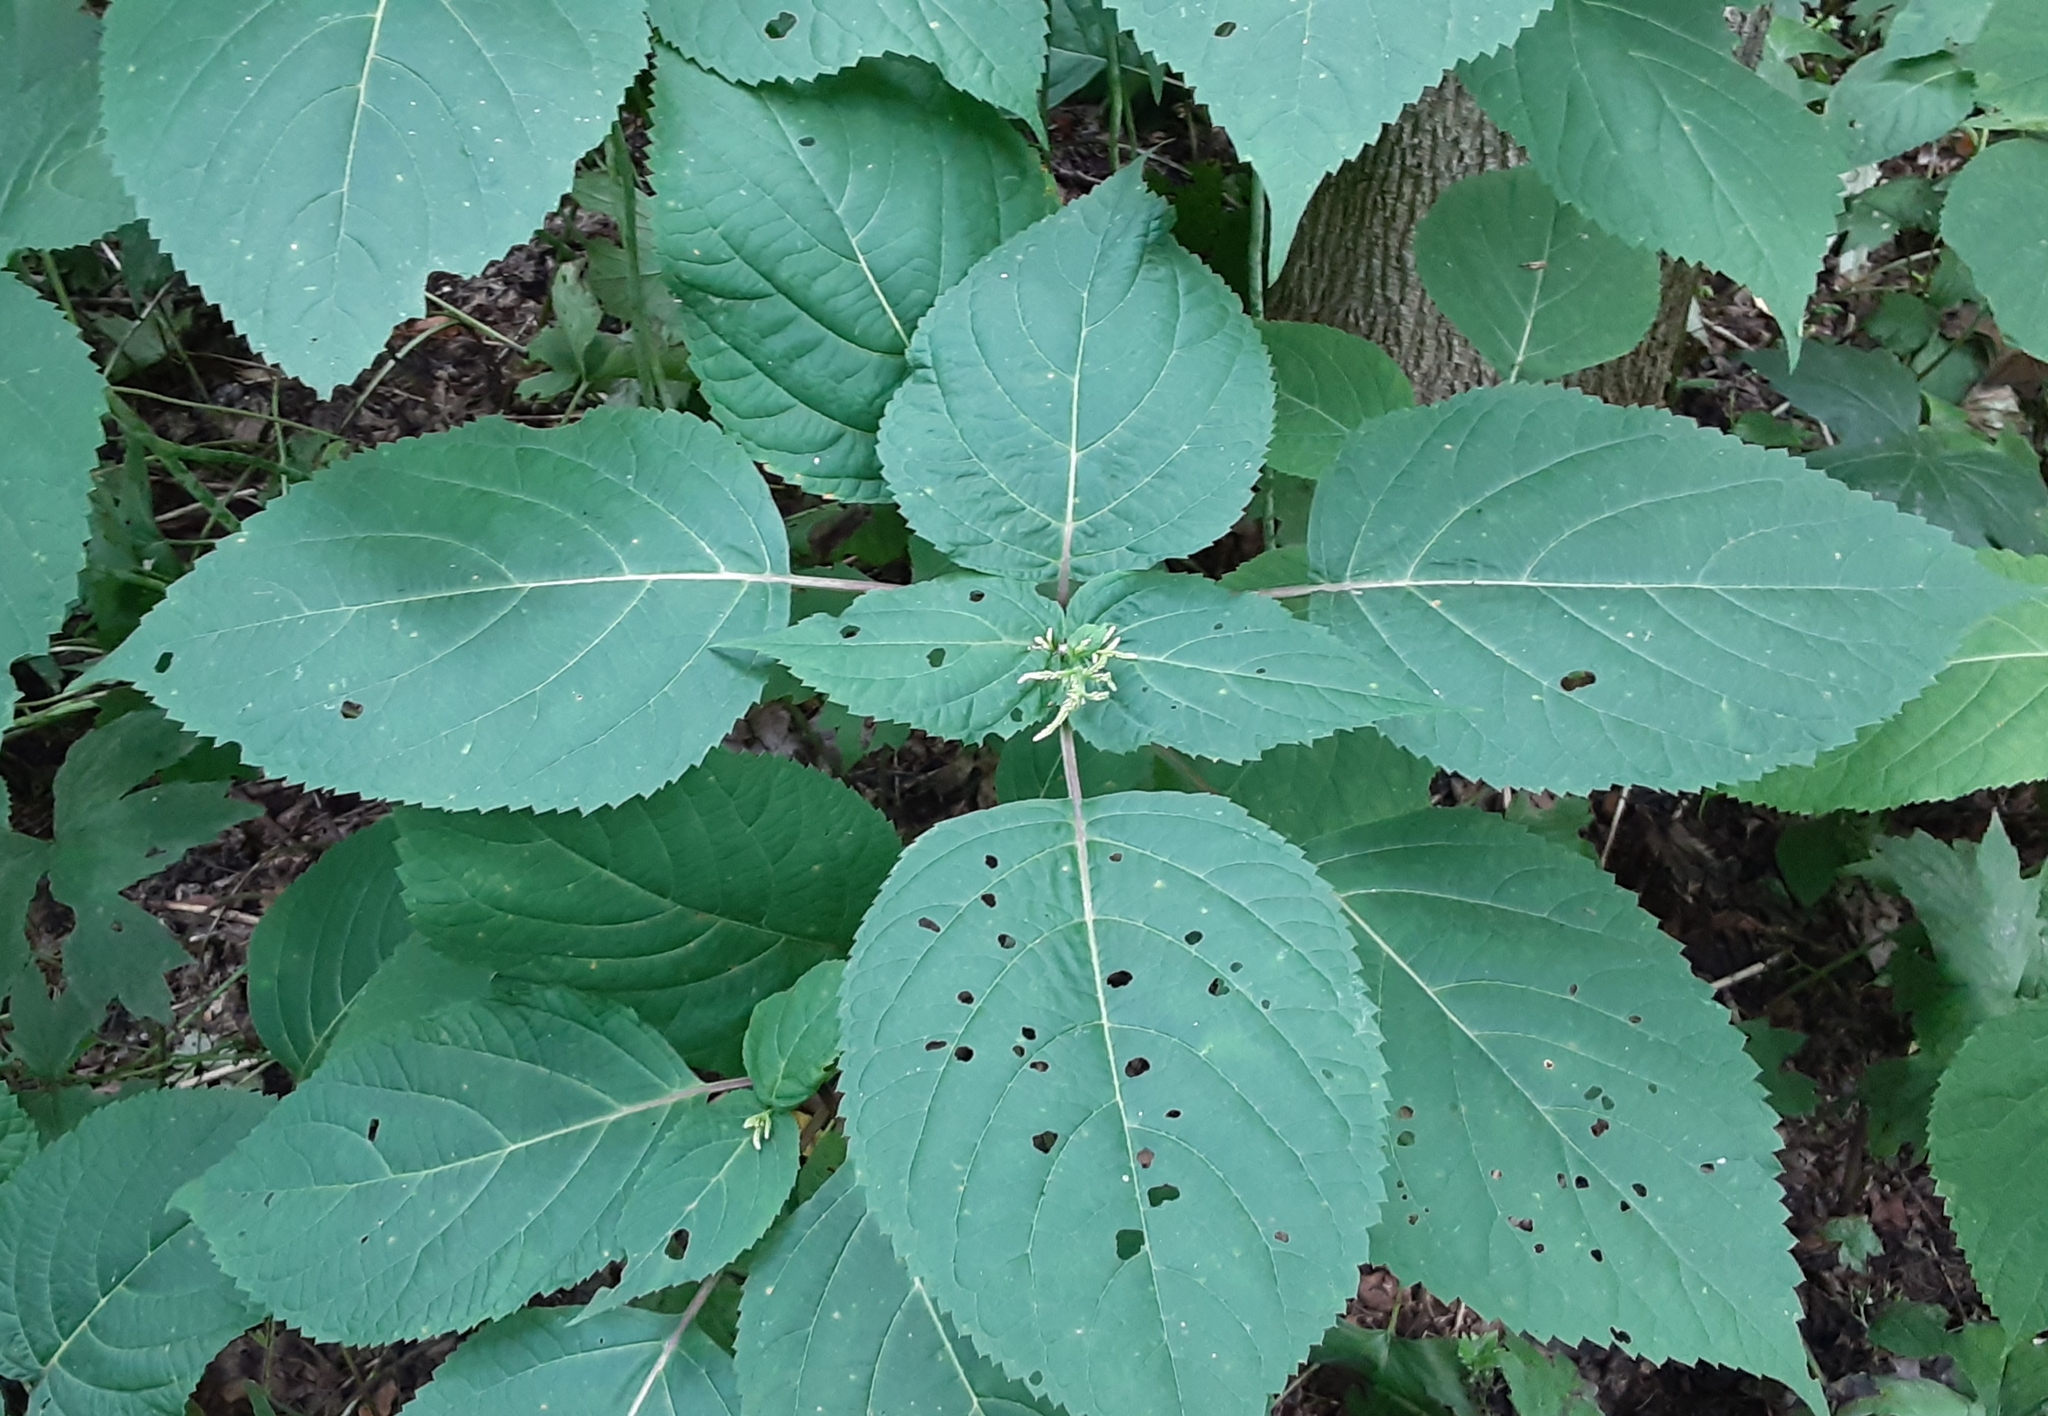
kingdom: Plantae
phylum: Tracheophyta
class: Magnoliopsida
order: Lamiales
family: Lamiaceae
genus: Collinsonia
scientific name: Collinsonia canadensis
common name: Northern horsebalm
